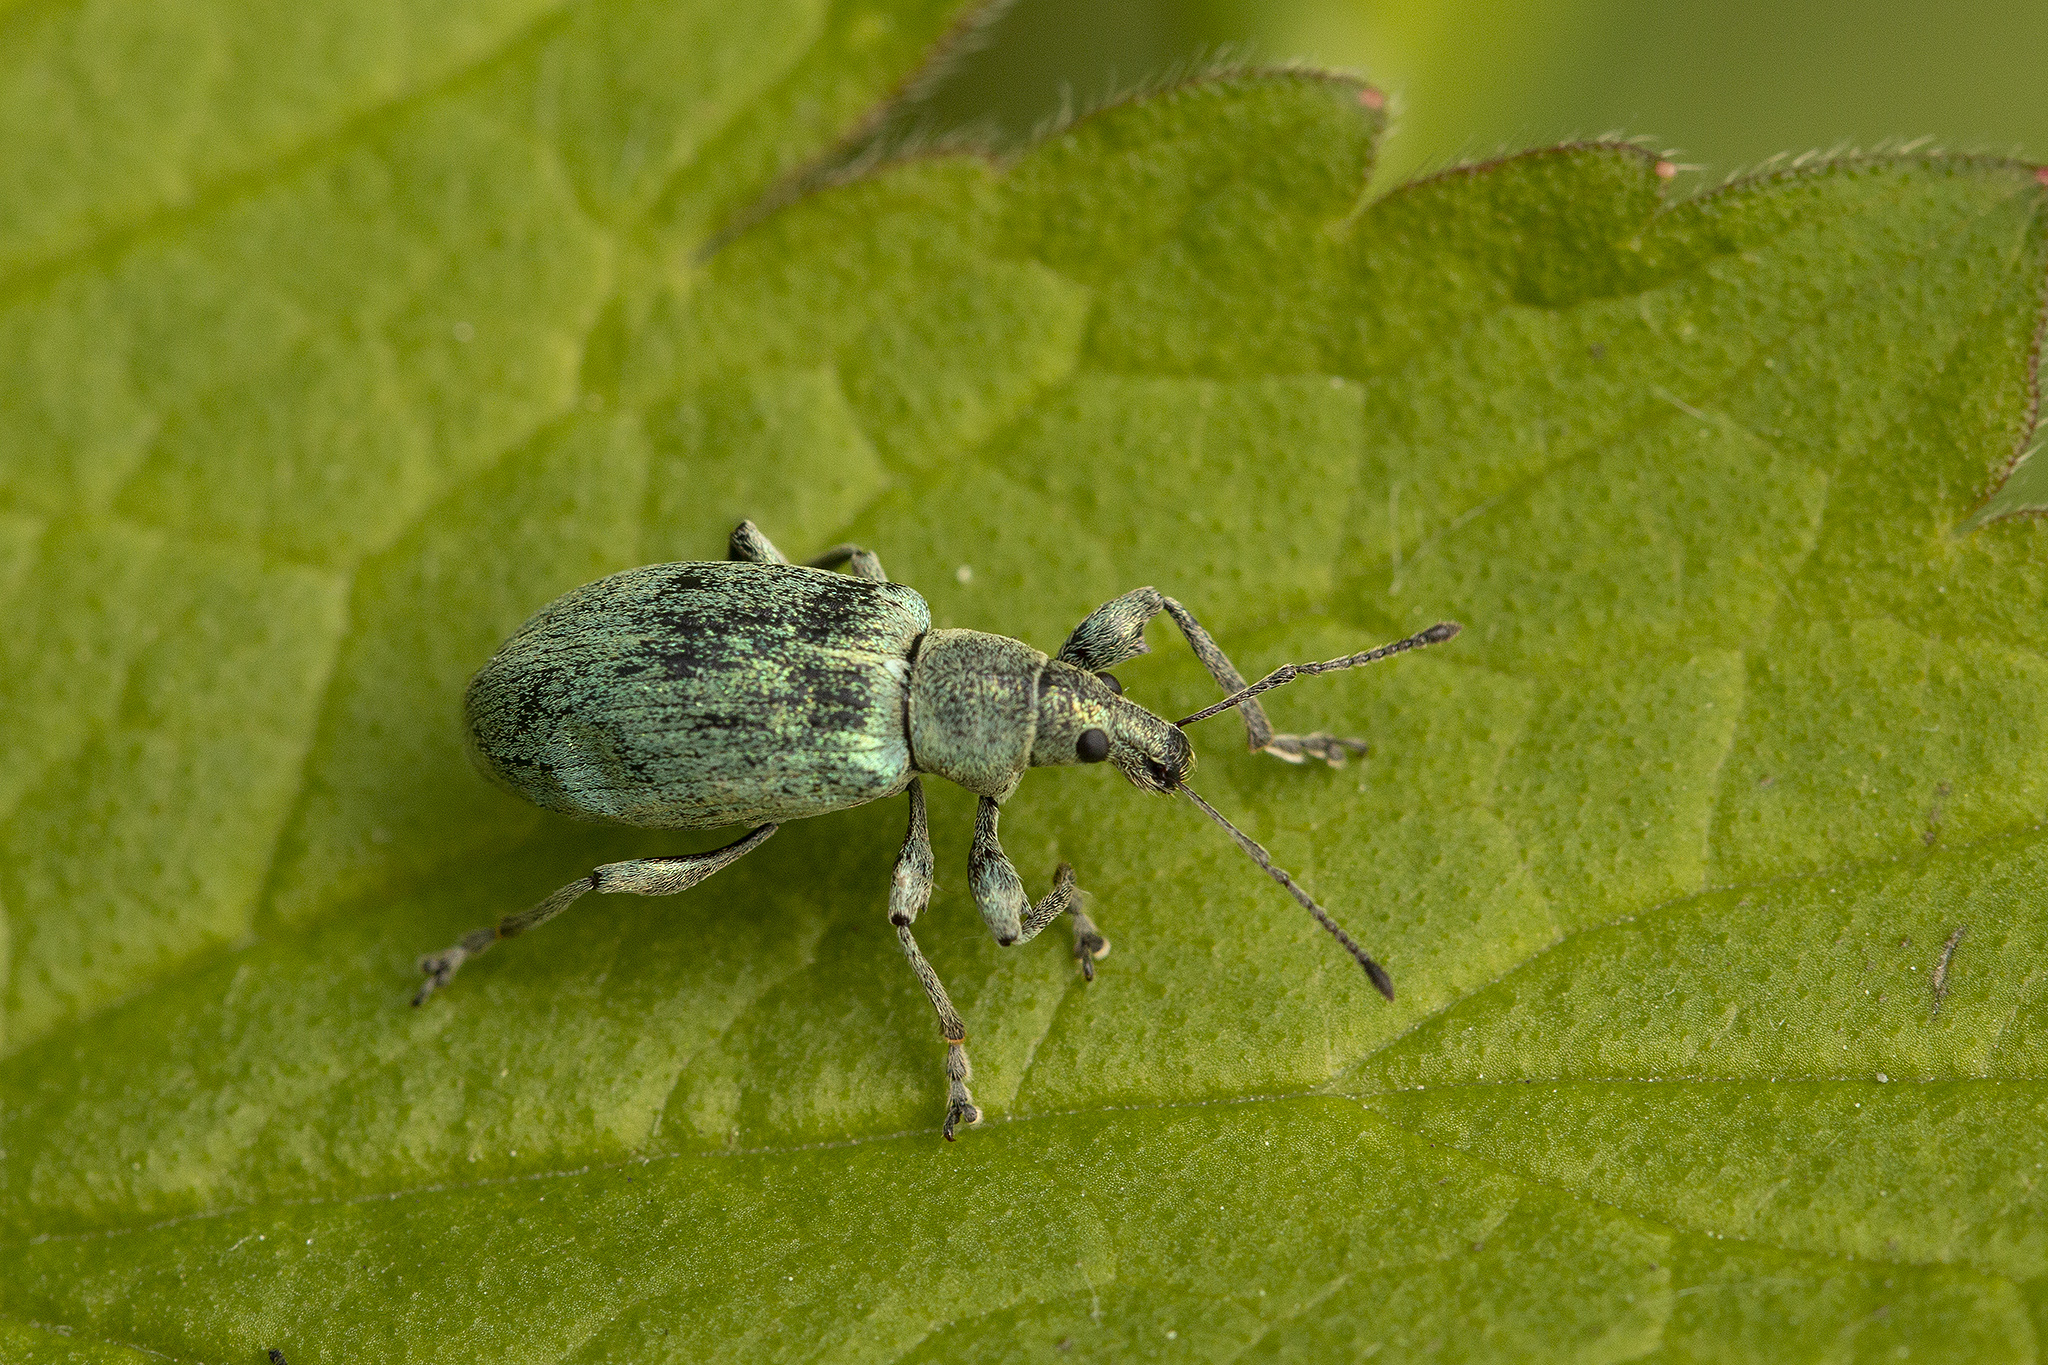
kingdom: Animalia
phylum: Arthropoda
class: Insecta
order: Coleoptera
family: Curculionidae
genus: Phyllobius
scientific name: Phyllobius pomaceus
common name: Green nettle weevil
